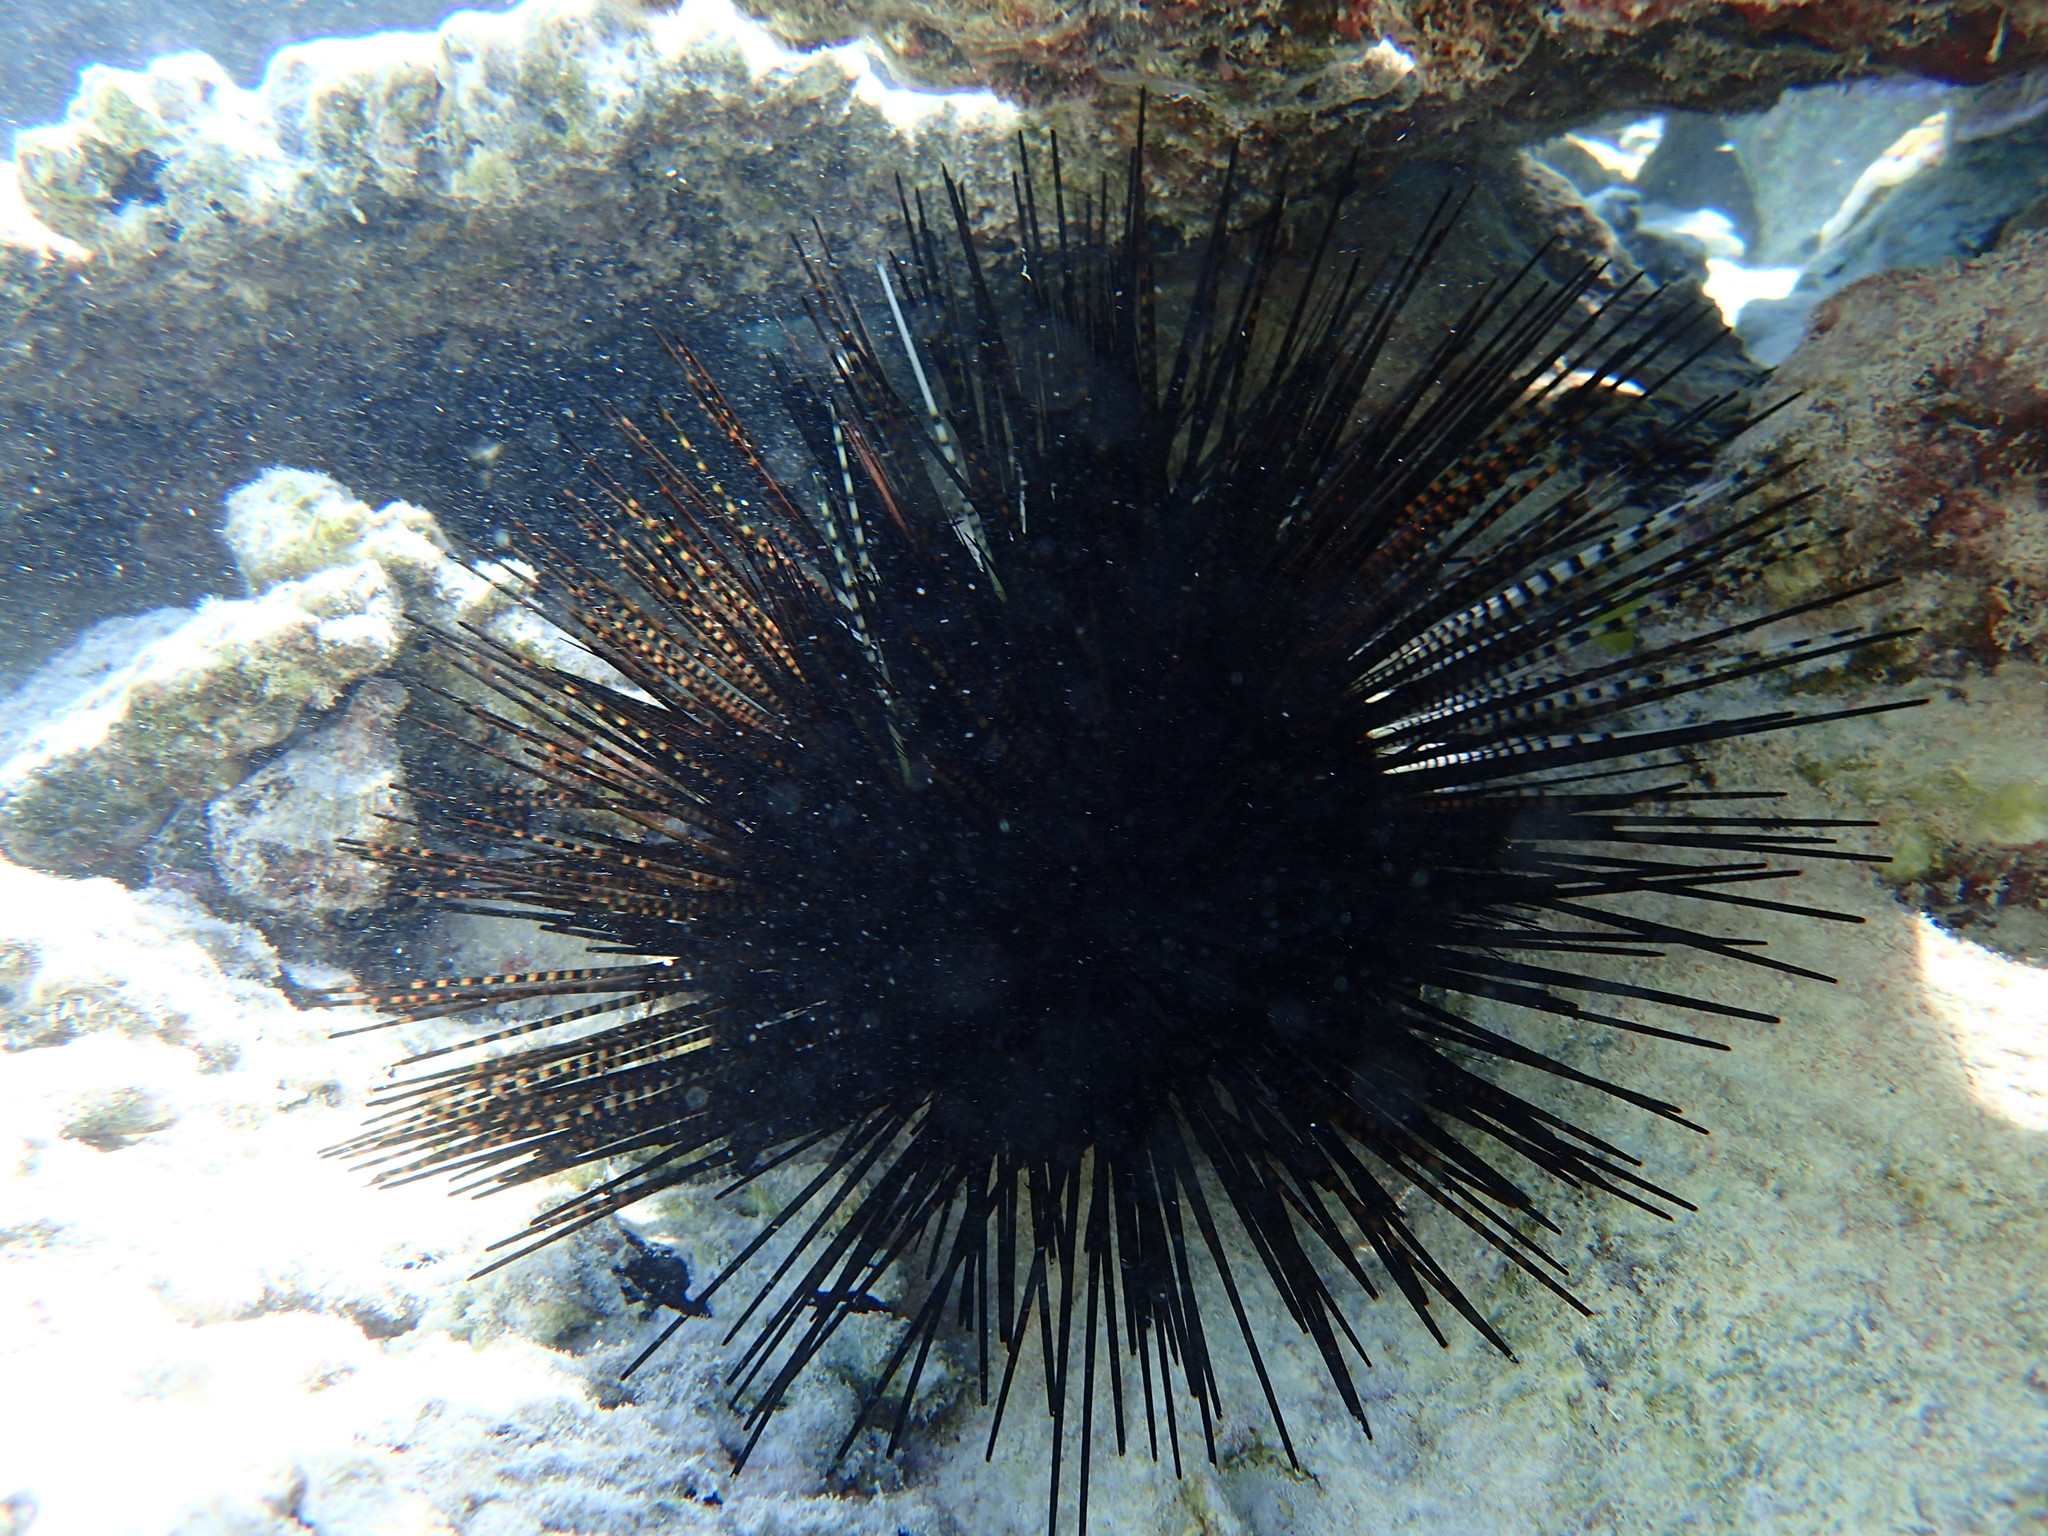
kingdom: Animalia
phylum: Echinodermata
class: Echinoidea
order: Diadematoida
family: Diadematidae
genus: Echinothrix
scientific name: Echinothrix calamaris
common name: Banded sea urchin
